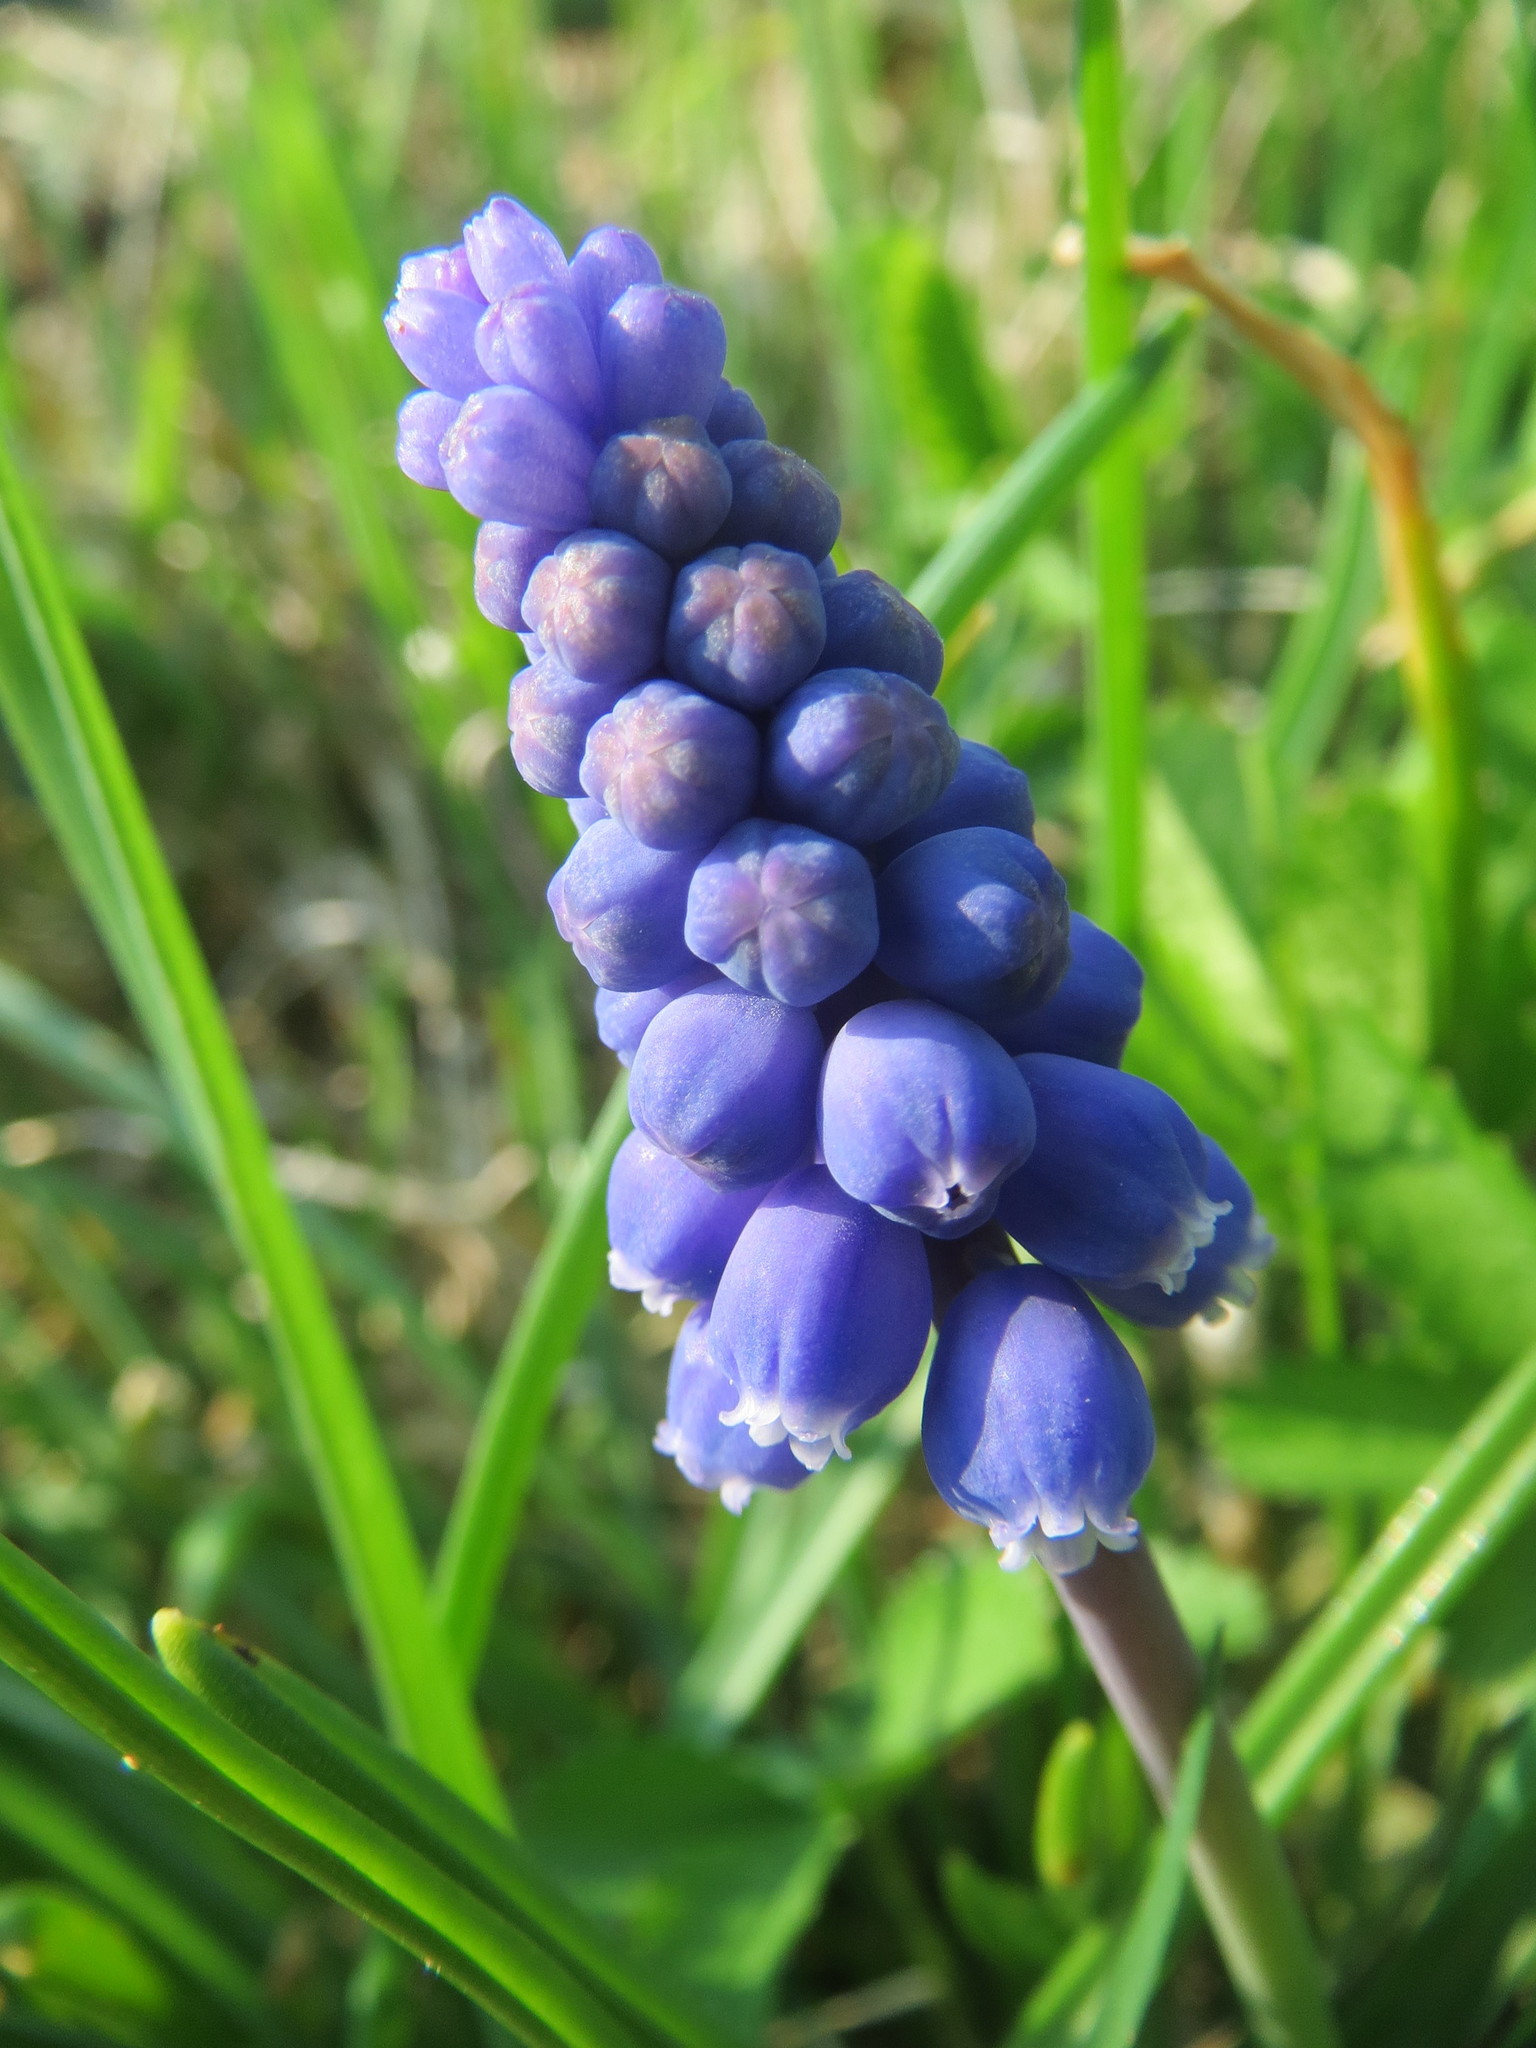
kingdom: Plantae
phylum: Tracheophyta
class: Liliopsida
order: Asparagales
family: Asparagaceae
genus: Muscari
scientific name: Muscari armeniacum
